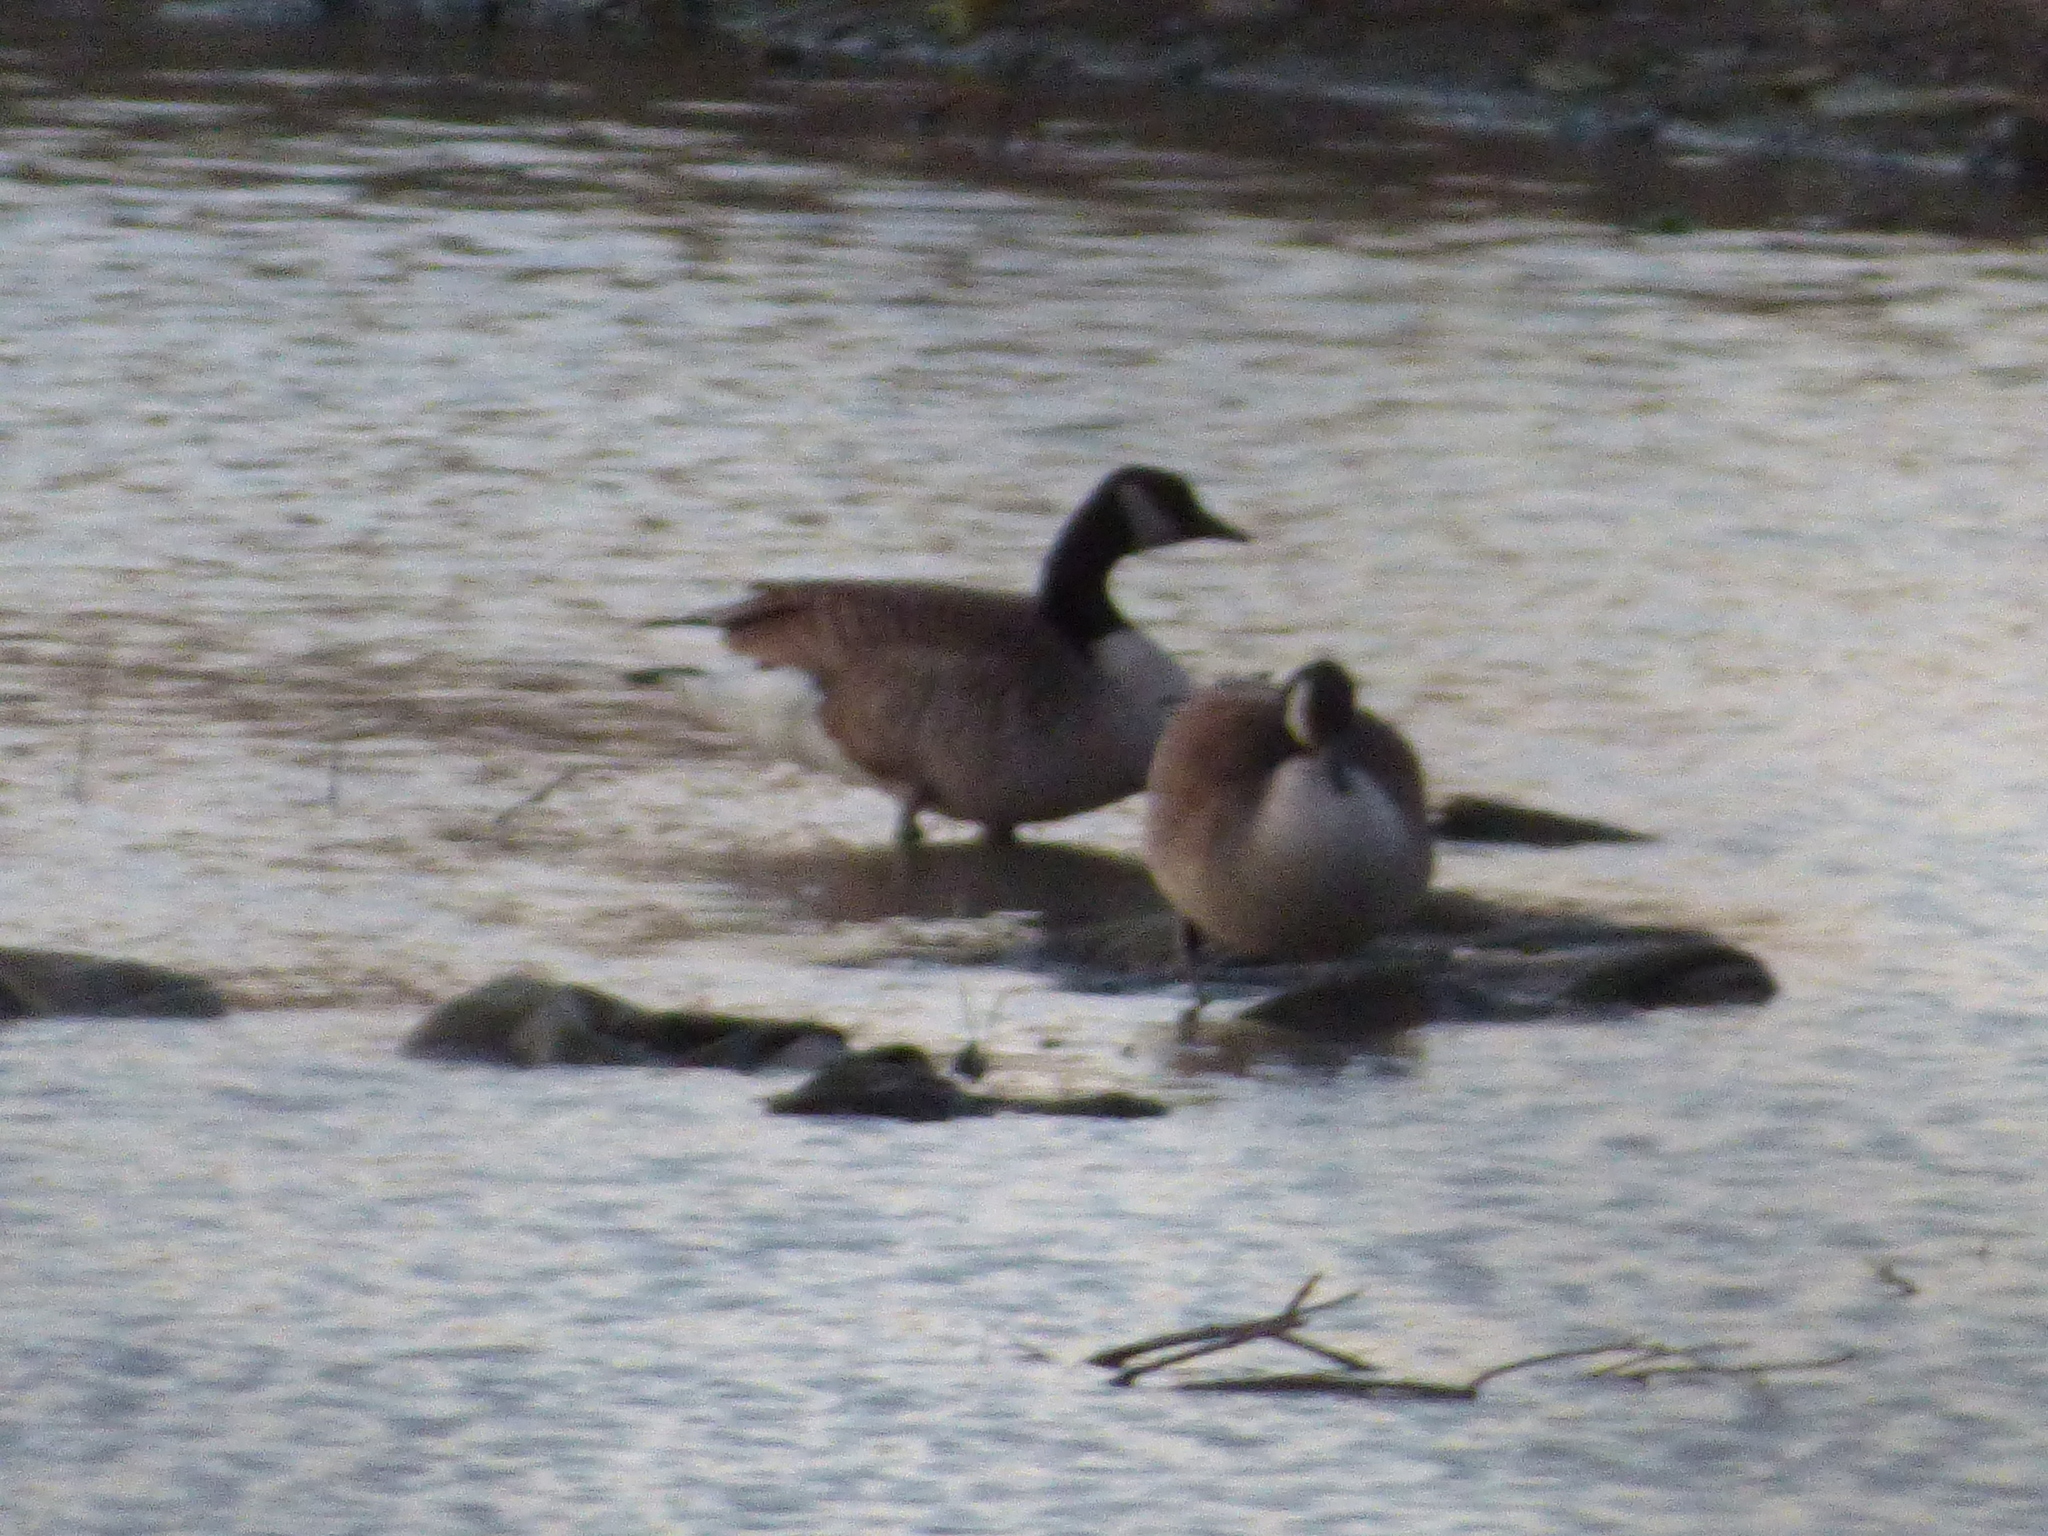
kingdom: Animalia
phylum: Chordata
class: Aves
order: Anseriformes
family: Anatidae
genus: Branta
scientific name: Branta canadensis
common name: Canada goose
